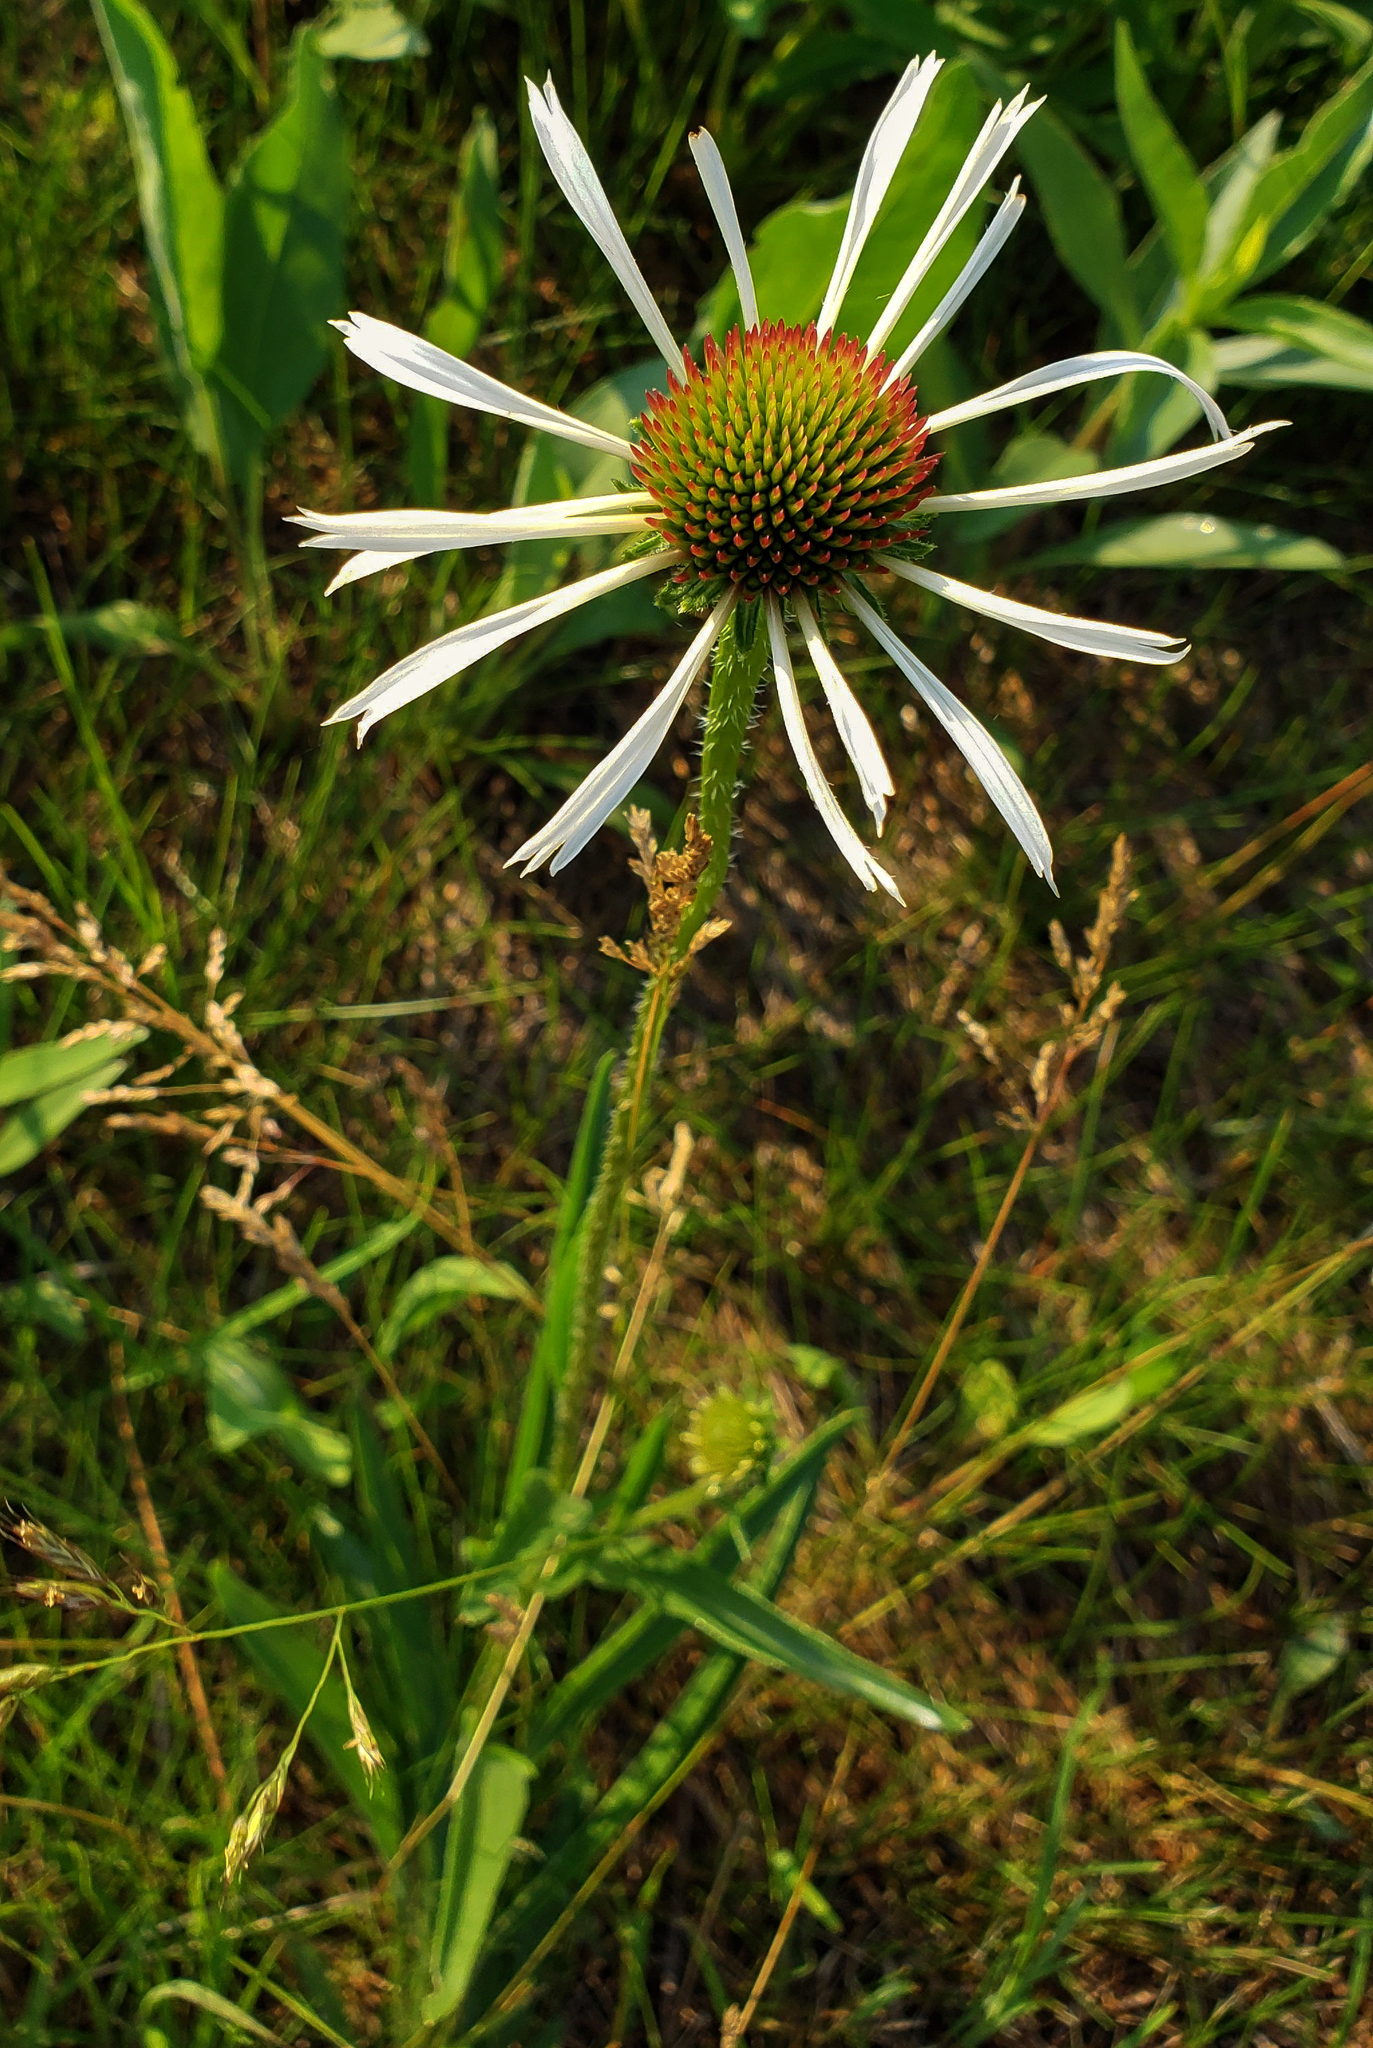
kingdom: Plantae
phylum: Tracheophyta
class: Magnoliopsida
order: Asterales
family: Asteraceae
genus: Echinacea
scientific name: Echinacea pallida
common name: Pale echinacea
